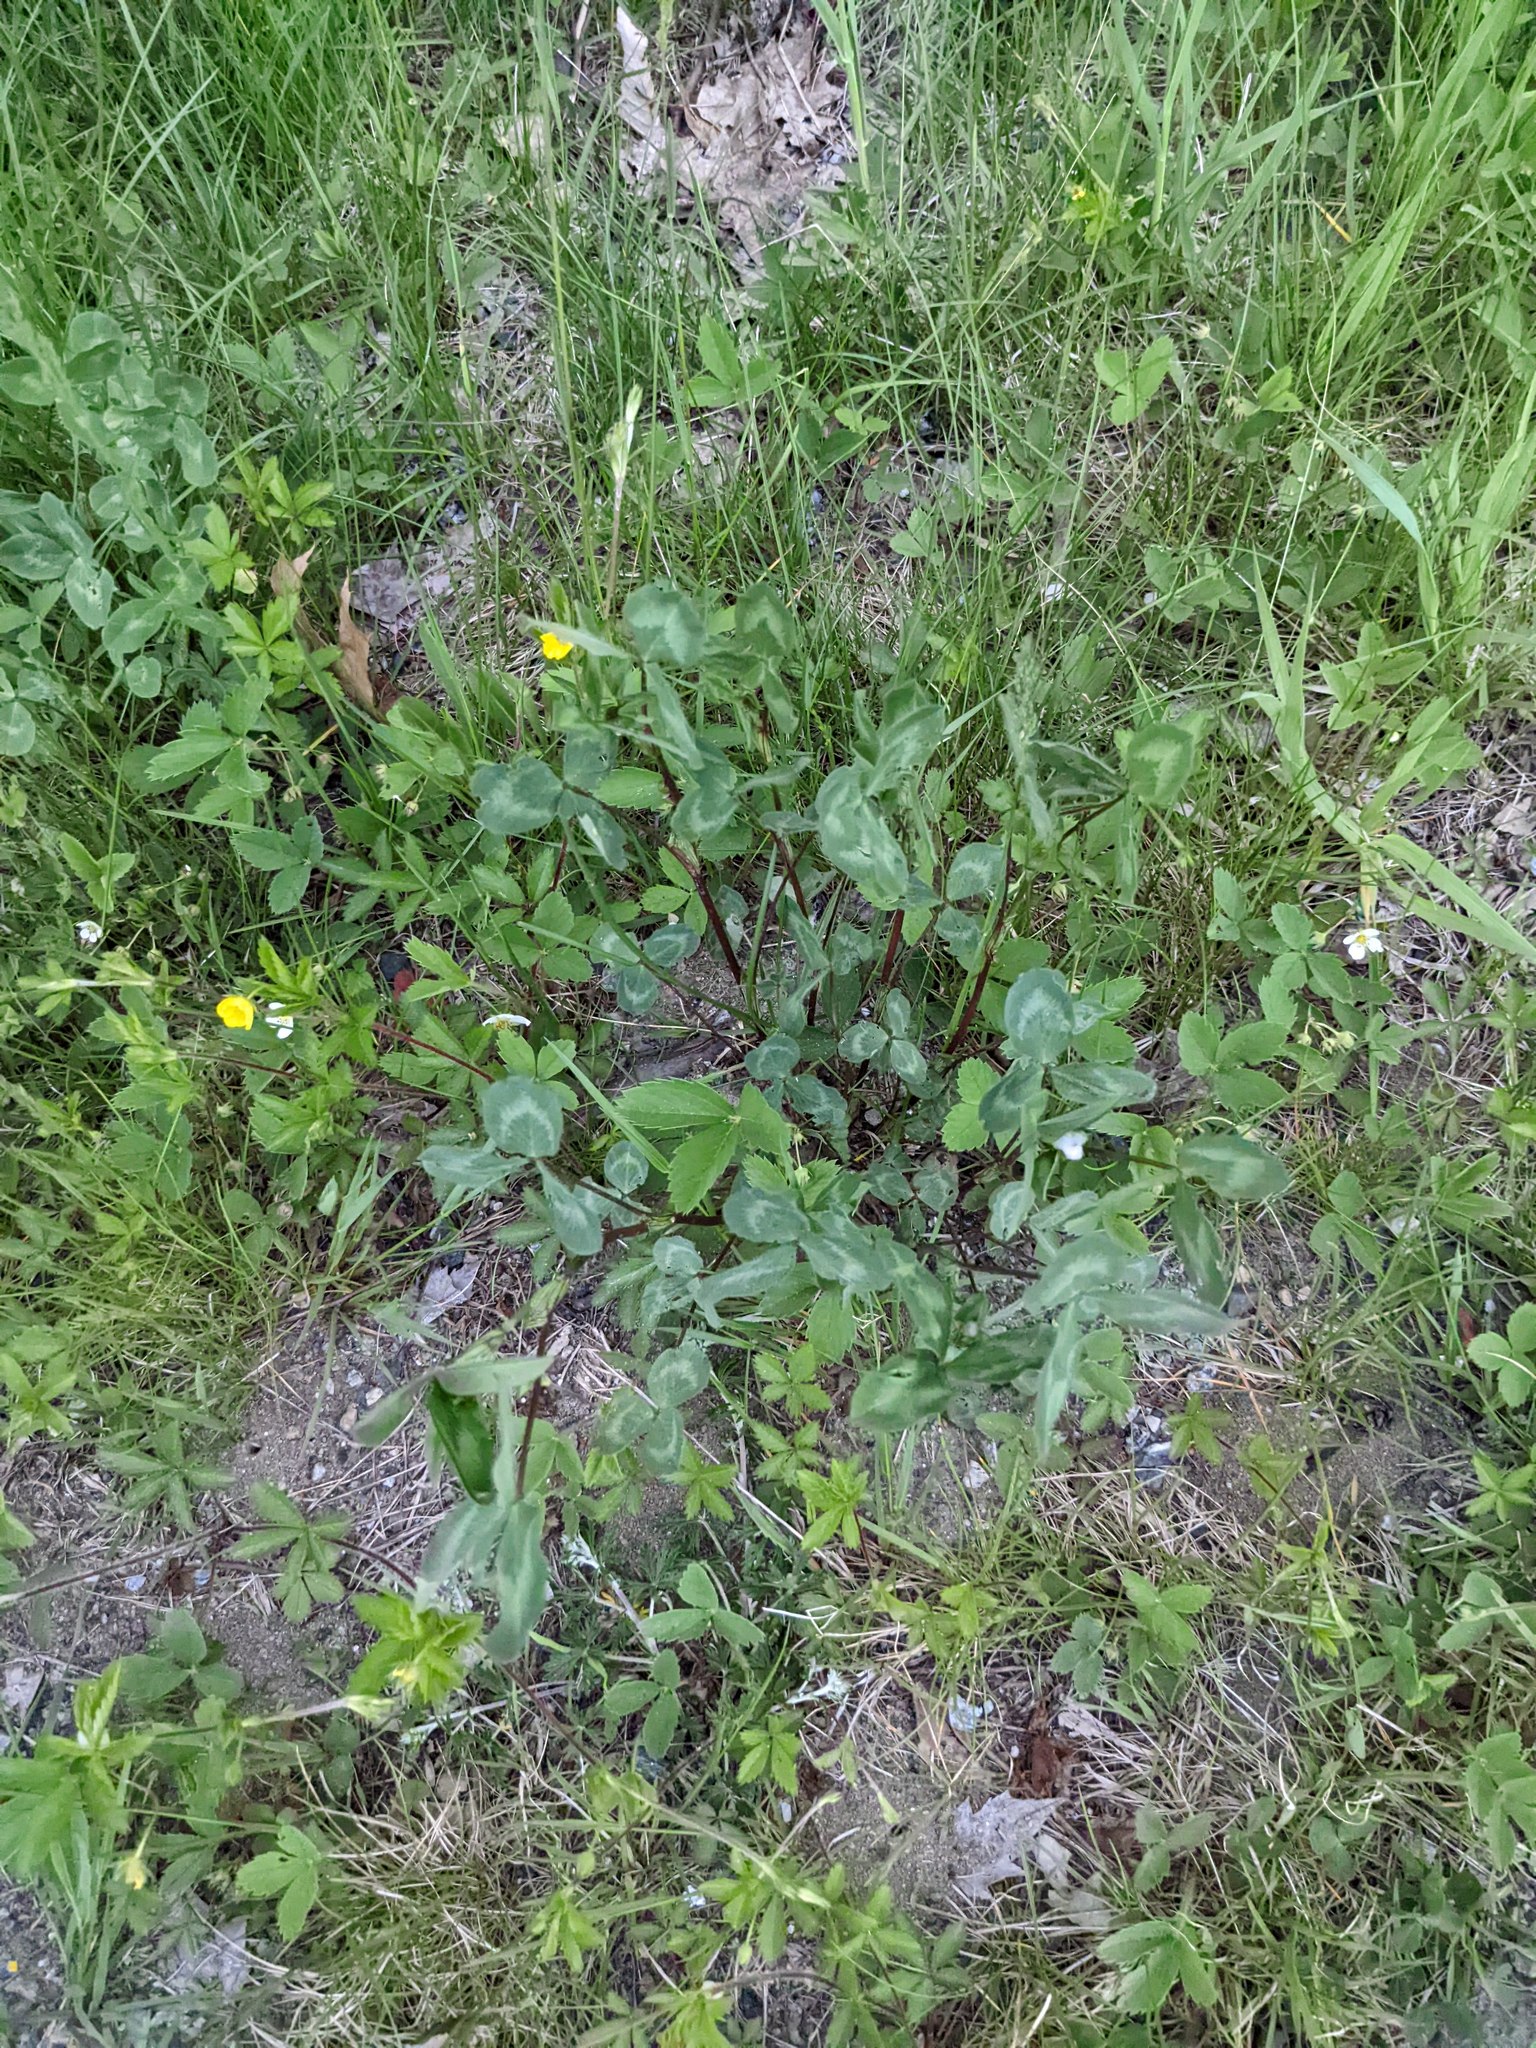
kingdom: Plantae
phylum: Tracheophyta
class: Magnoliopsida
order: Fabales
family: Fabaceae
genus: Trifolium
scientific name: Trifolium pratense
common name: Red clover
